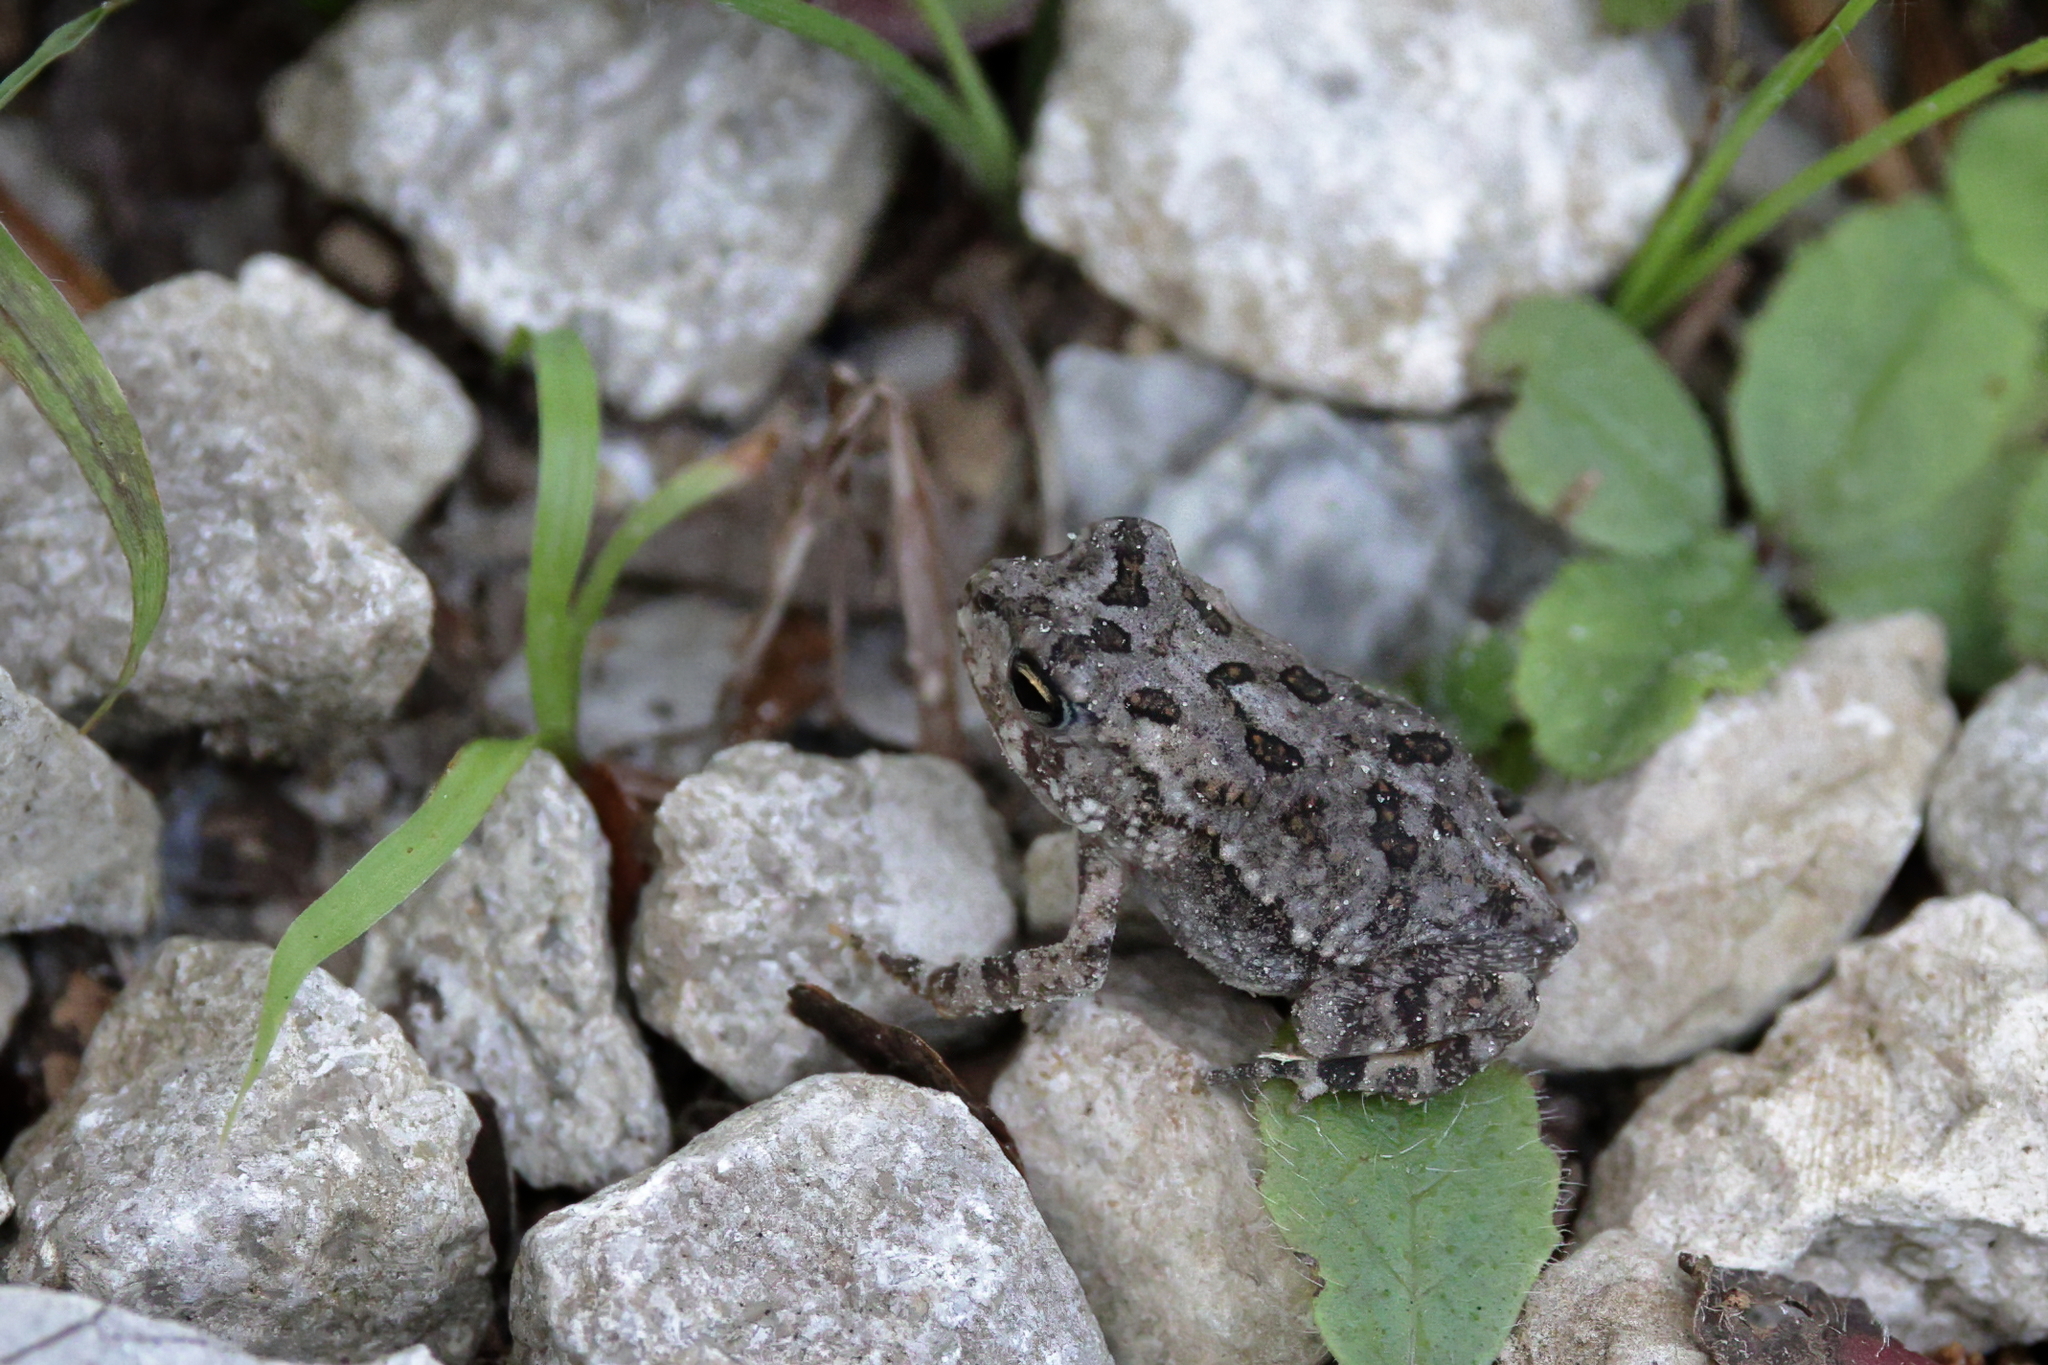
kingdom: Animalia
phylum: Chordata
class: Amphibia
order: Anura
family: Bufonidae
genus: Anaxyrus
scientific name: Anaxyrus terrestris
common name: Southern toad
